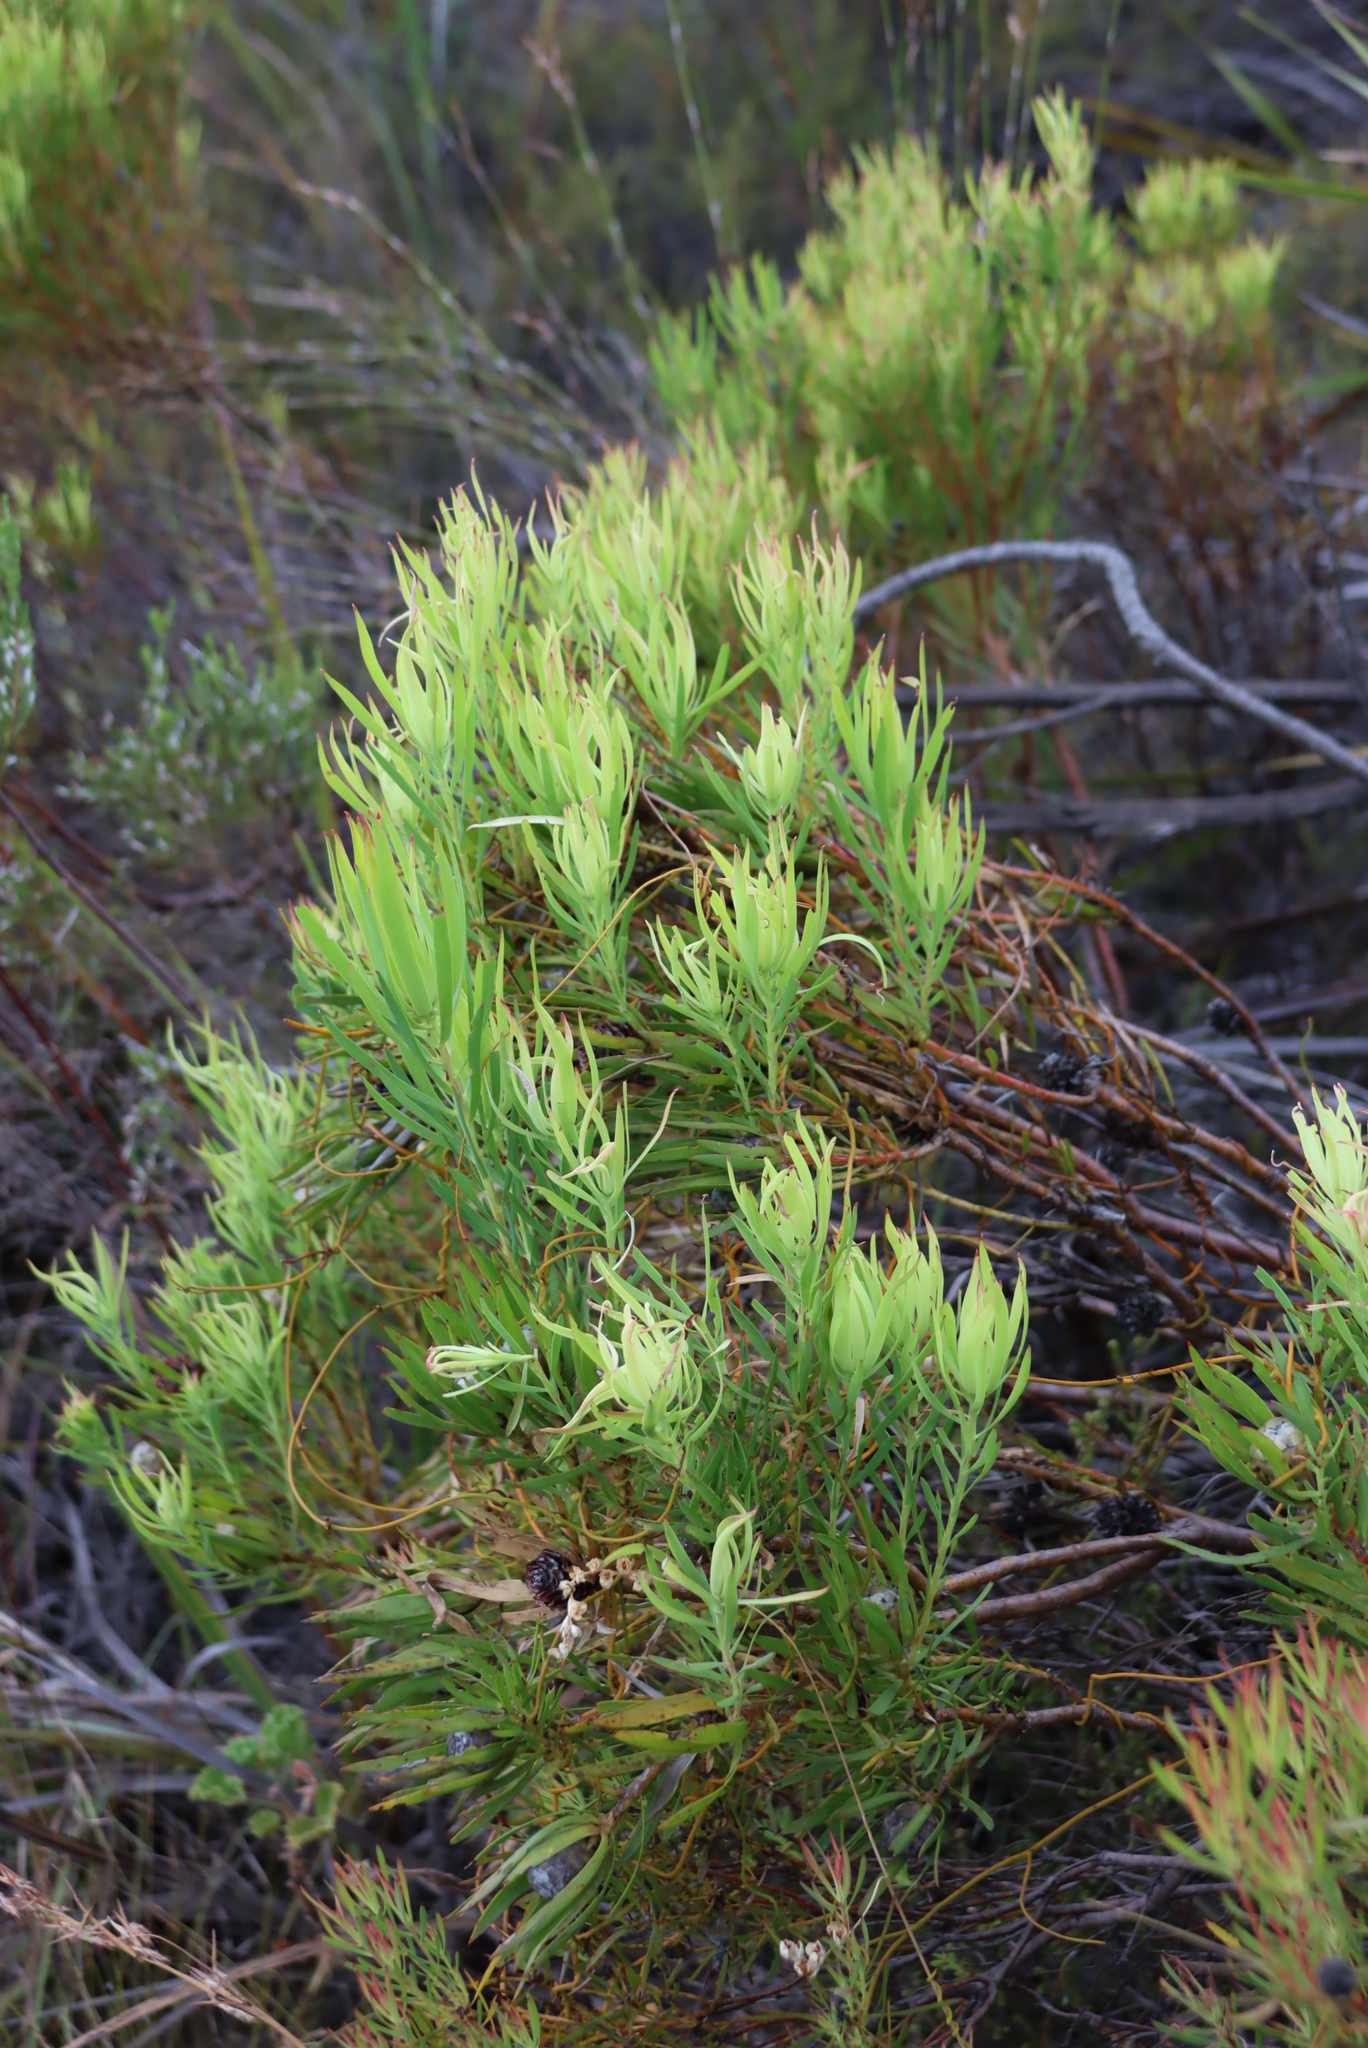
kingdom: Plantae
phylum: Tracheophyta
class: Magnoliopsida
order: Proteales
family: Proteaceae
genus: Leucadendron
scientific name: Leucadendron salignum
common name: Common sunshine conebush
